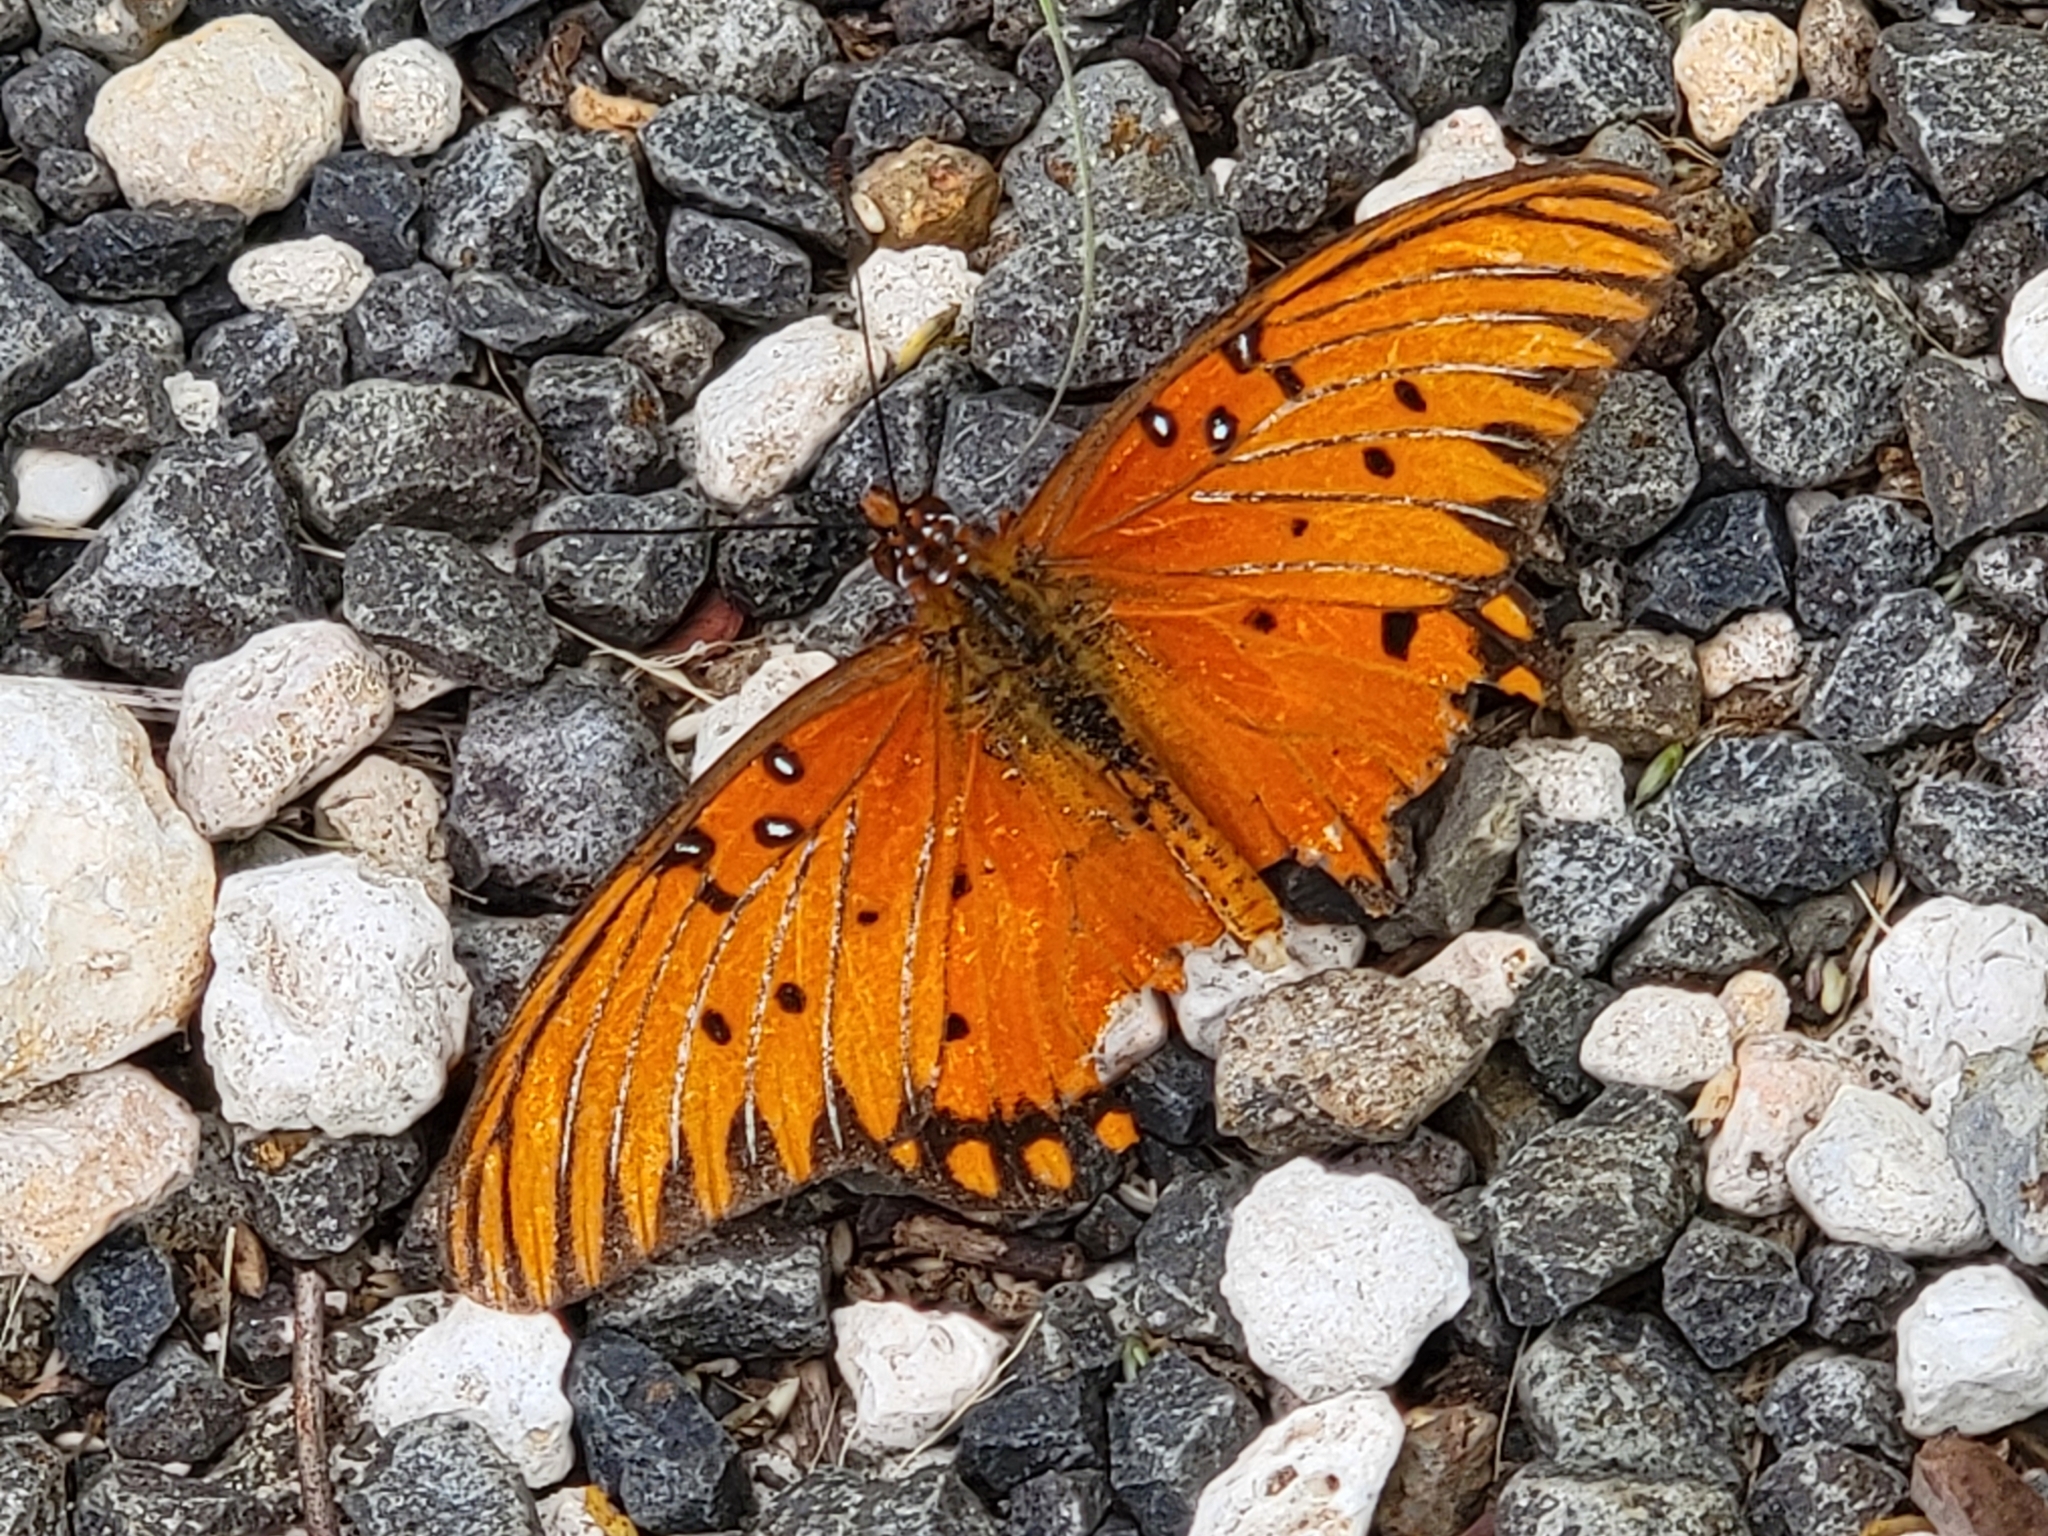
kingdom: Animalia
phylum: Arthropoda
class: Insecta
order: Lepidoptera
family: Nymphalidae
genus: Dione
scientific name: Dione vanillae
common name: Gulf fritillary
